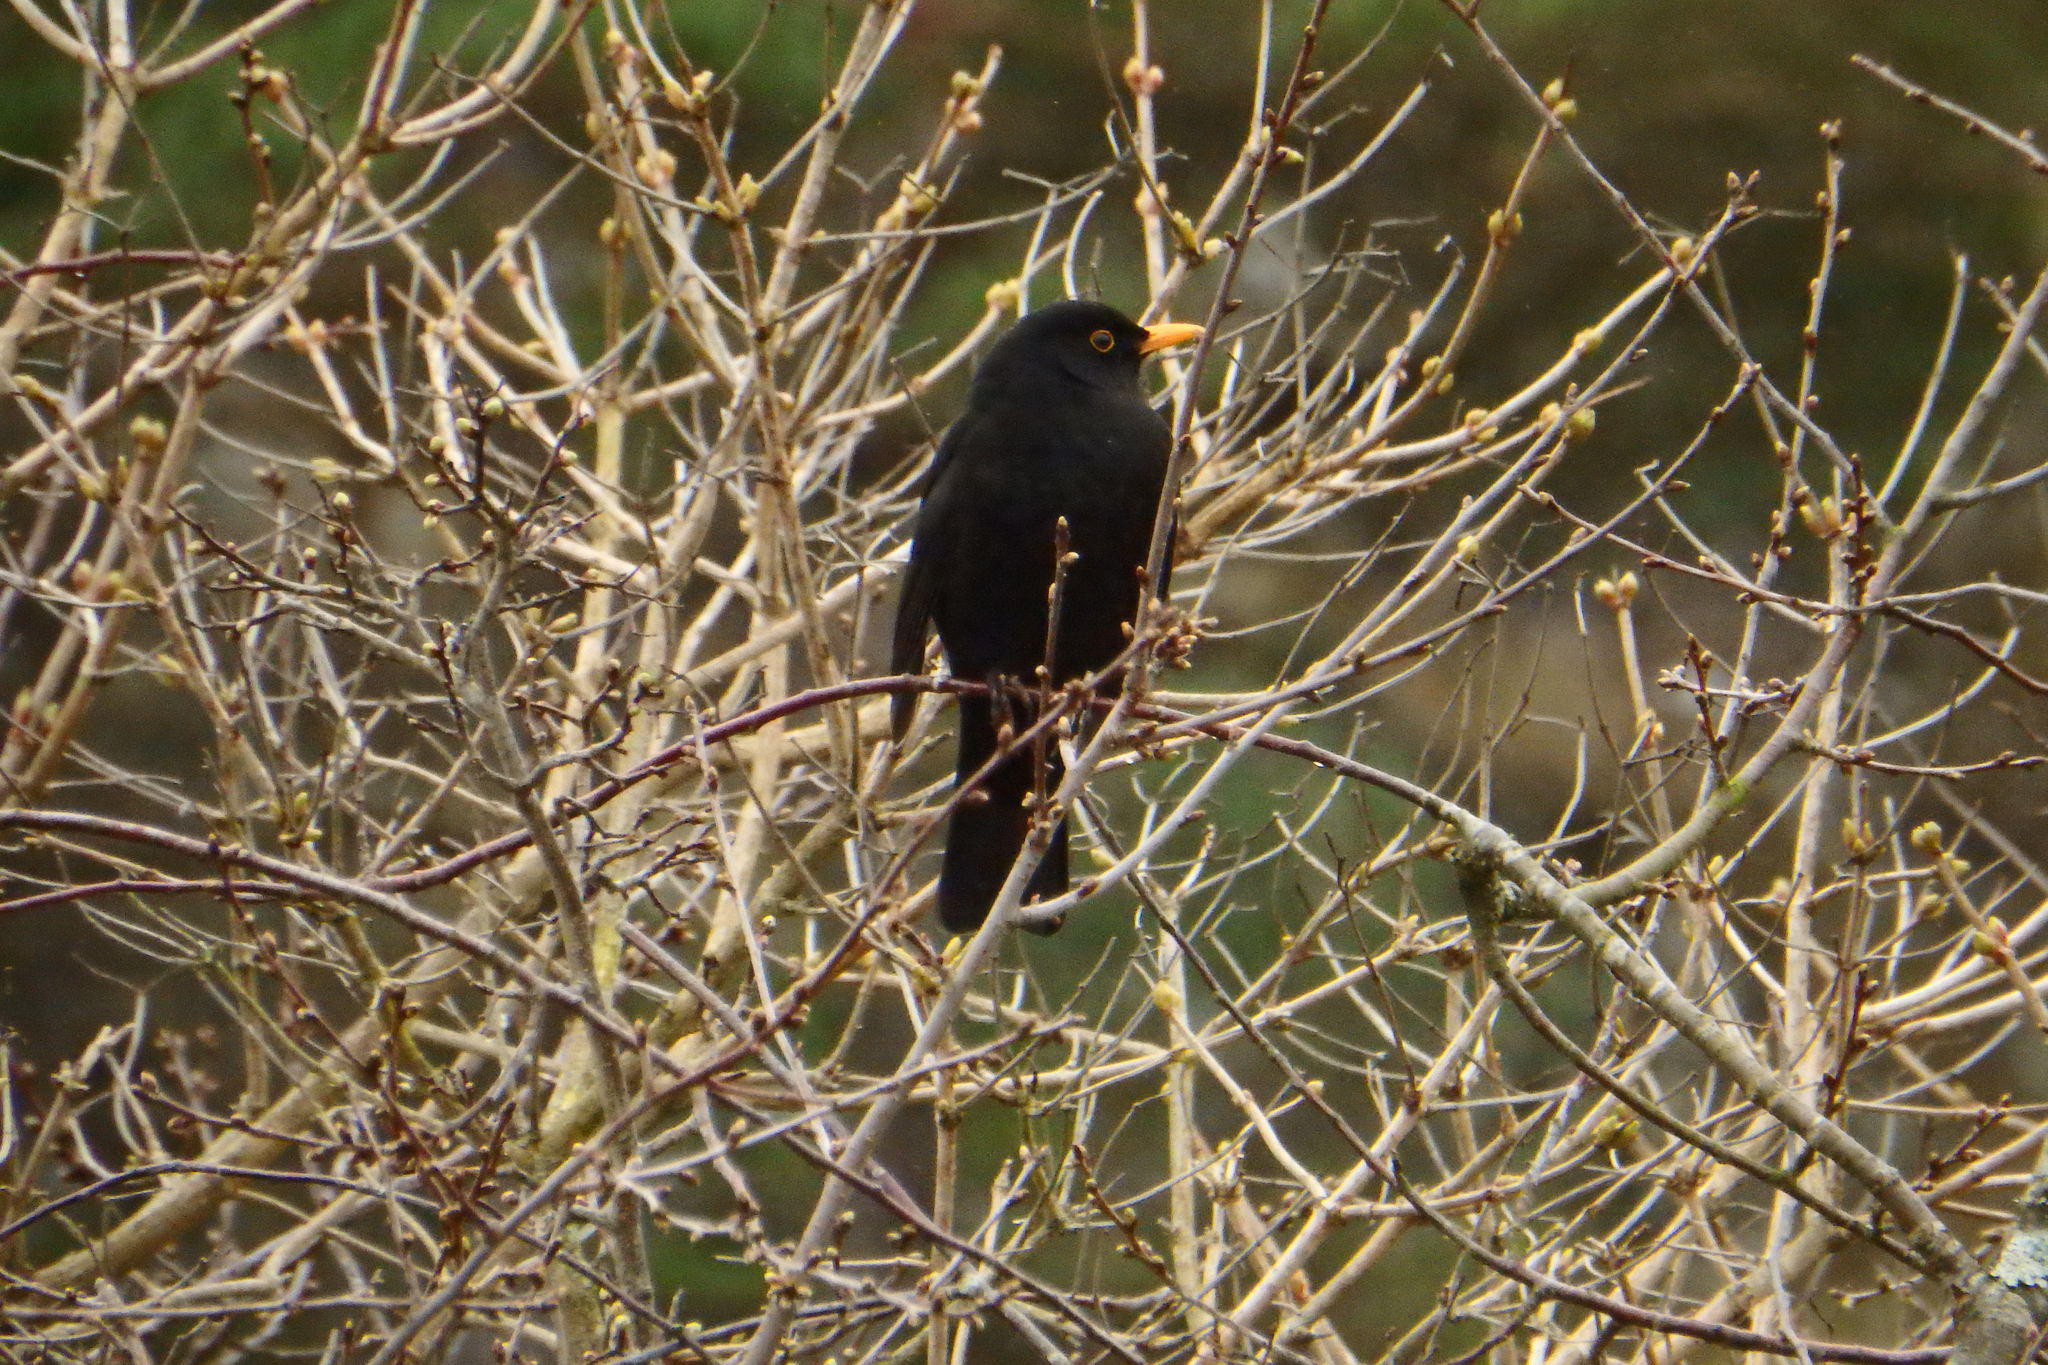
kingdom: Animalia
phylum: Chordata
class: Aves
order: Passeriformes
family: Turdidae
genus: Turdus
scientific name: Turdus merula
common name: Common blackbird
